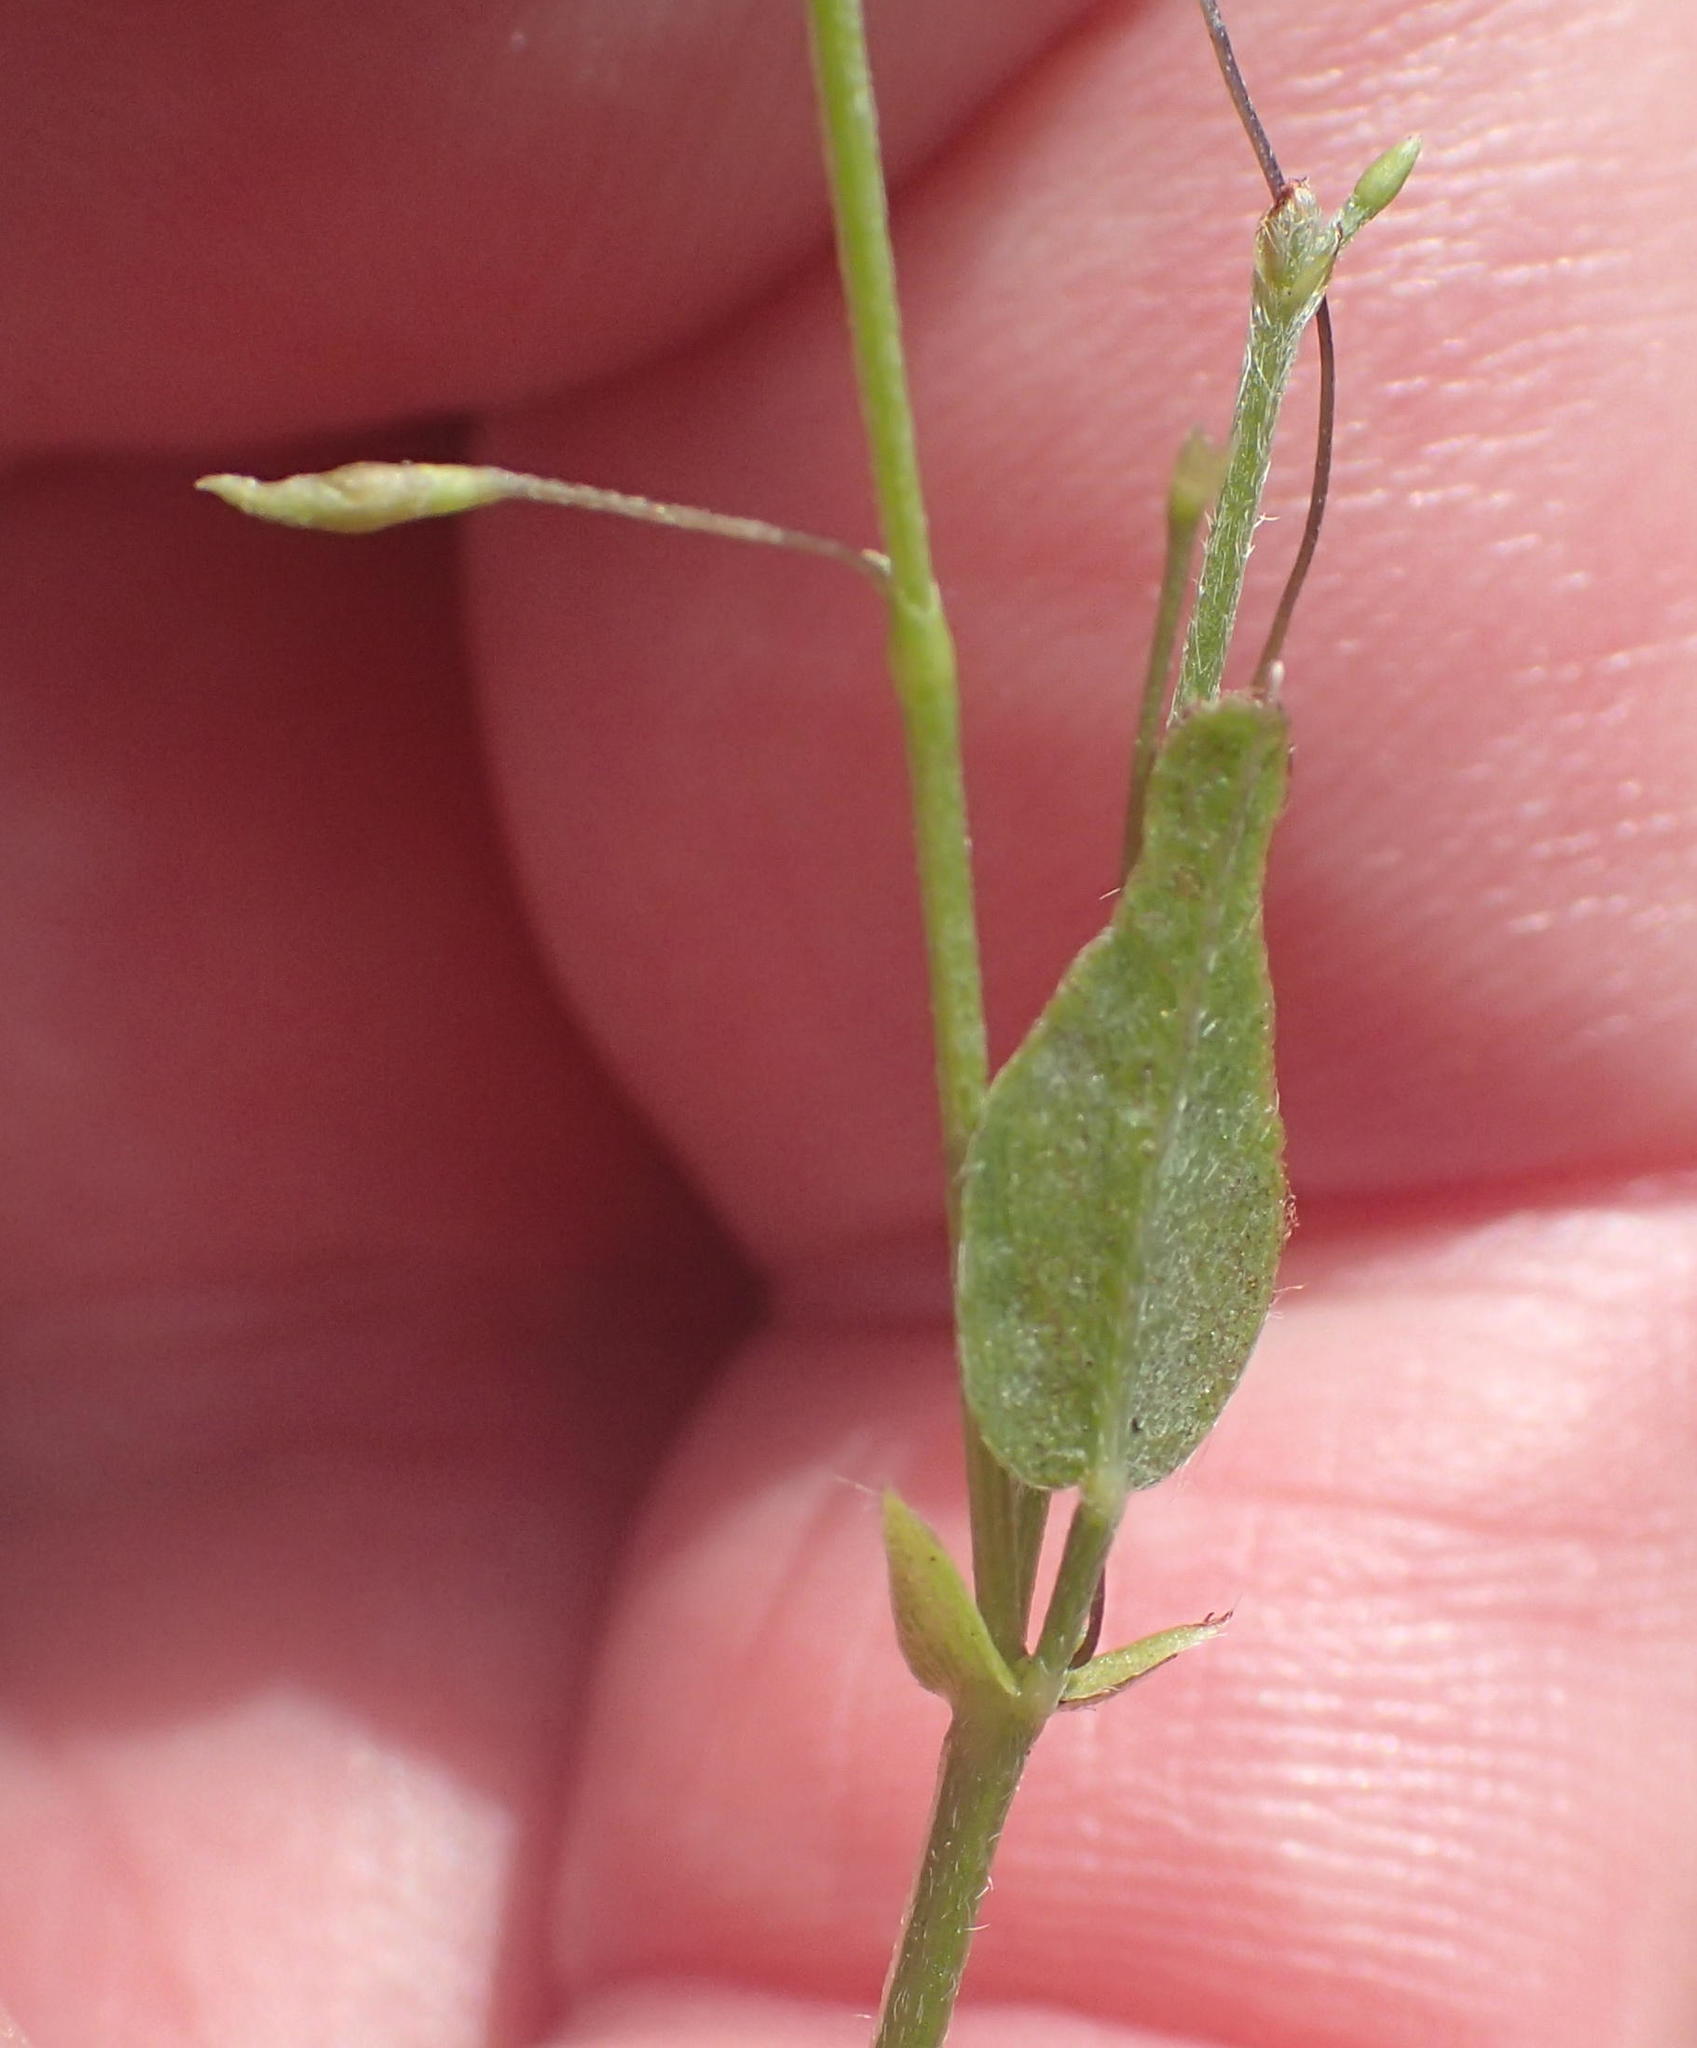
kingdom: Plantae
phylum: Tracheophyta
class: Magnoliopsida
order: Fabales
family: Fabaceae
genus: Psoralea
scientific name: Psoralea plauta
